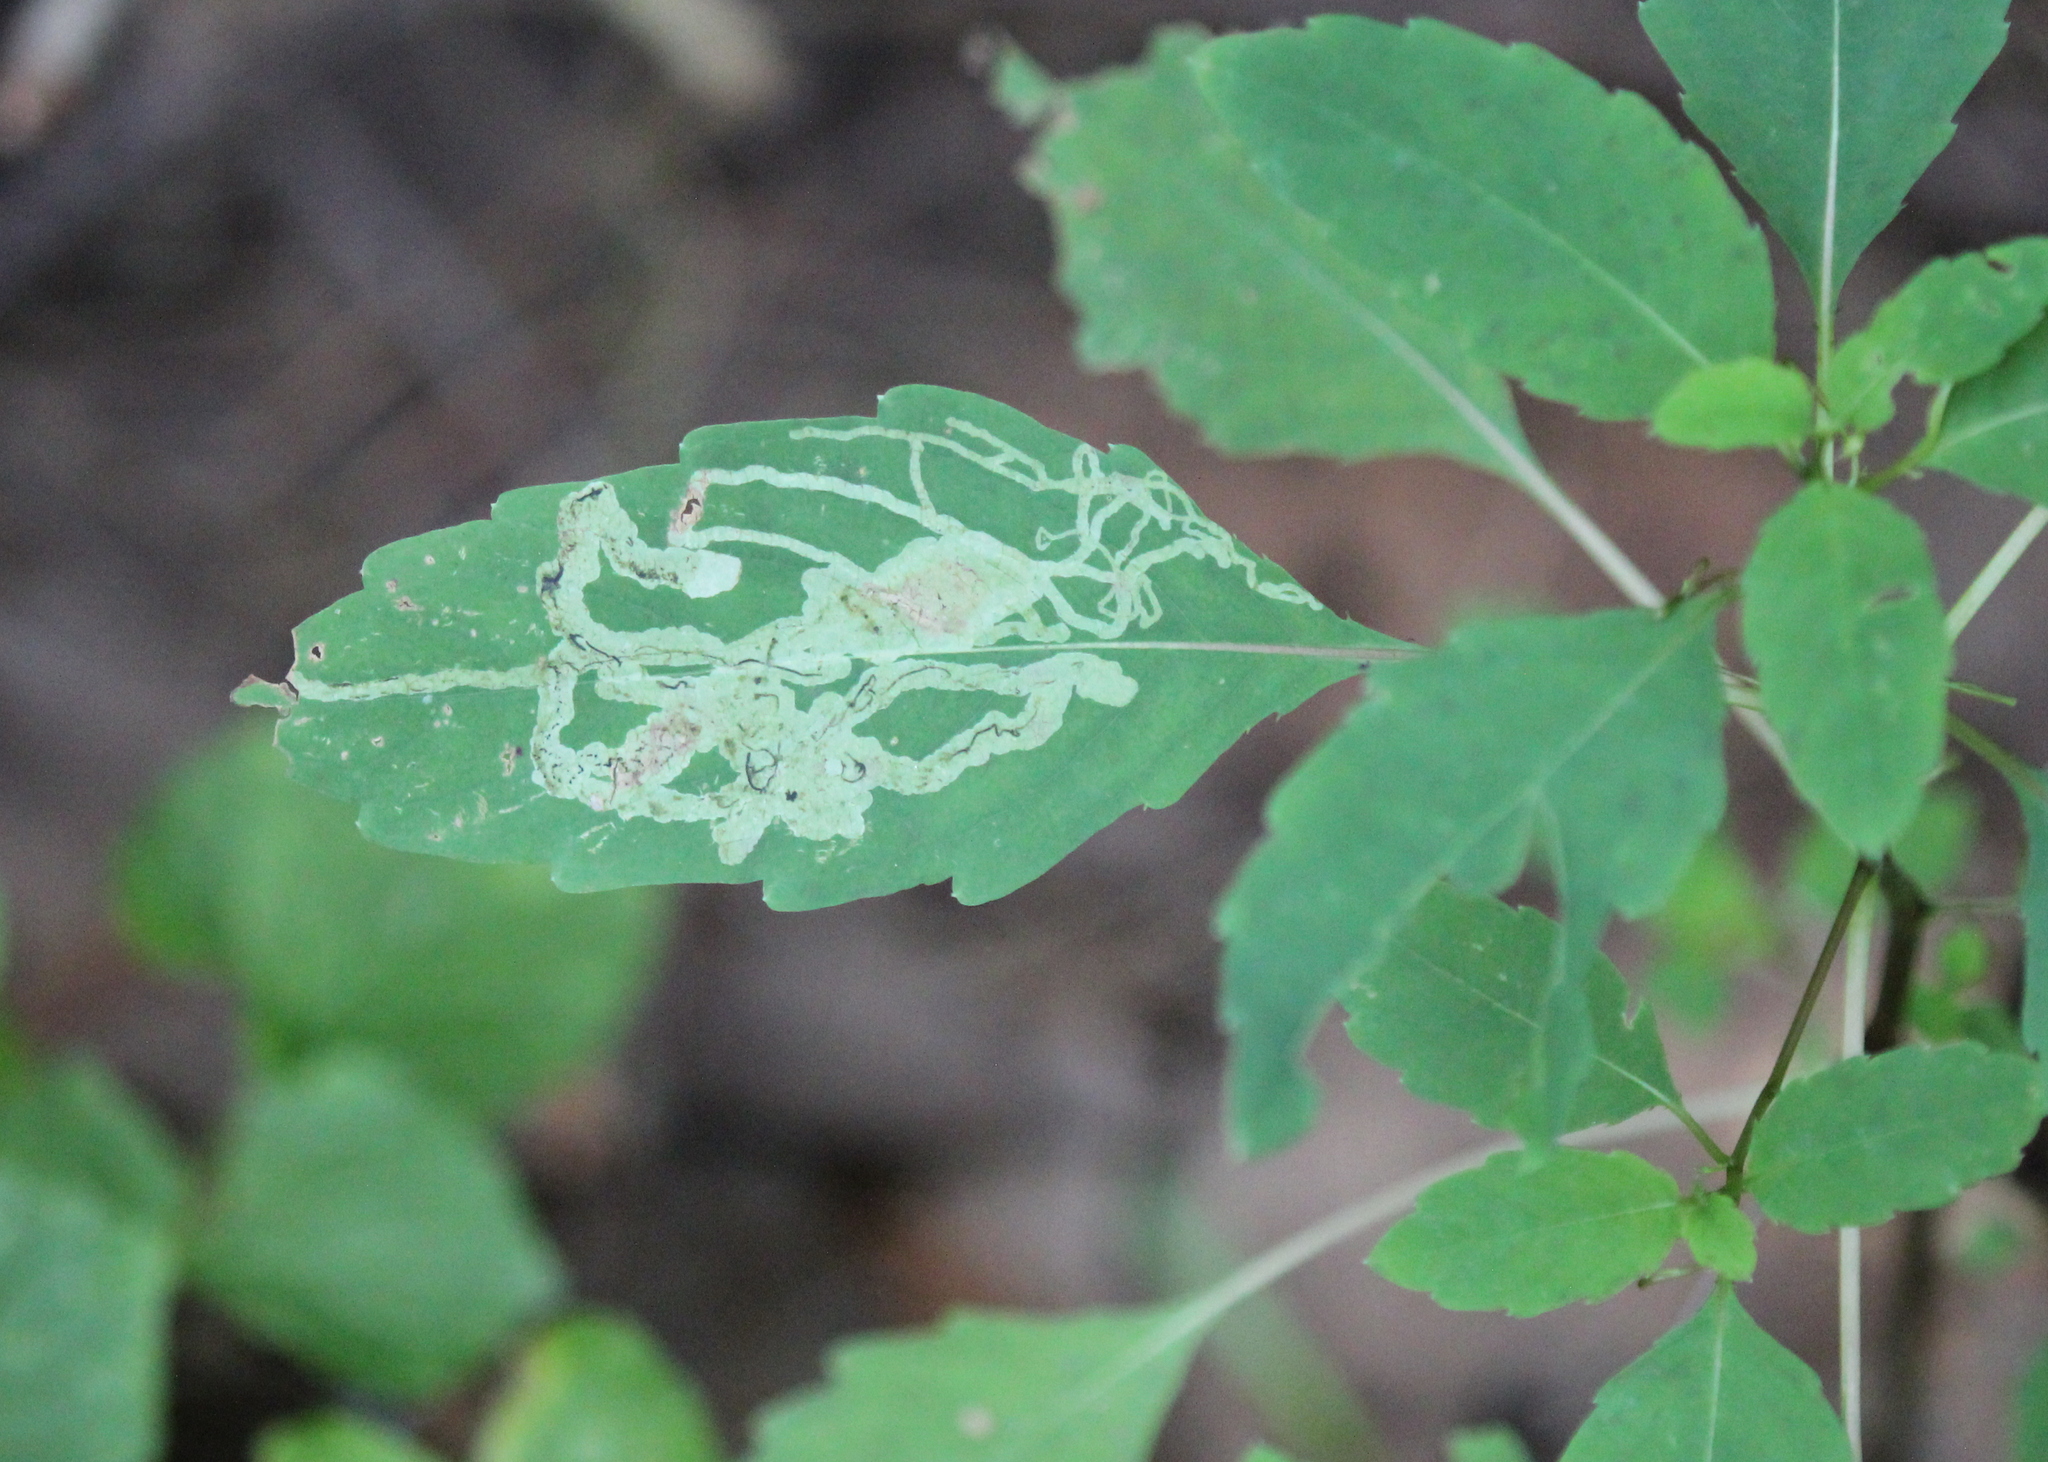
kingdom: Animalia
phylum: Arthropoda
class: Insecta
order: Diptera
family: Agromyzidae
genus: Phytoliriomyza
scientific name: Phytoliriomyza melampyga
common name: Jewelweed leaf-miner fly
